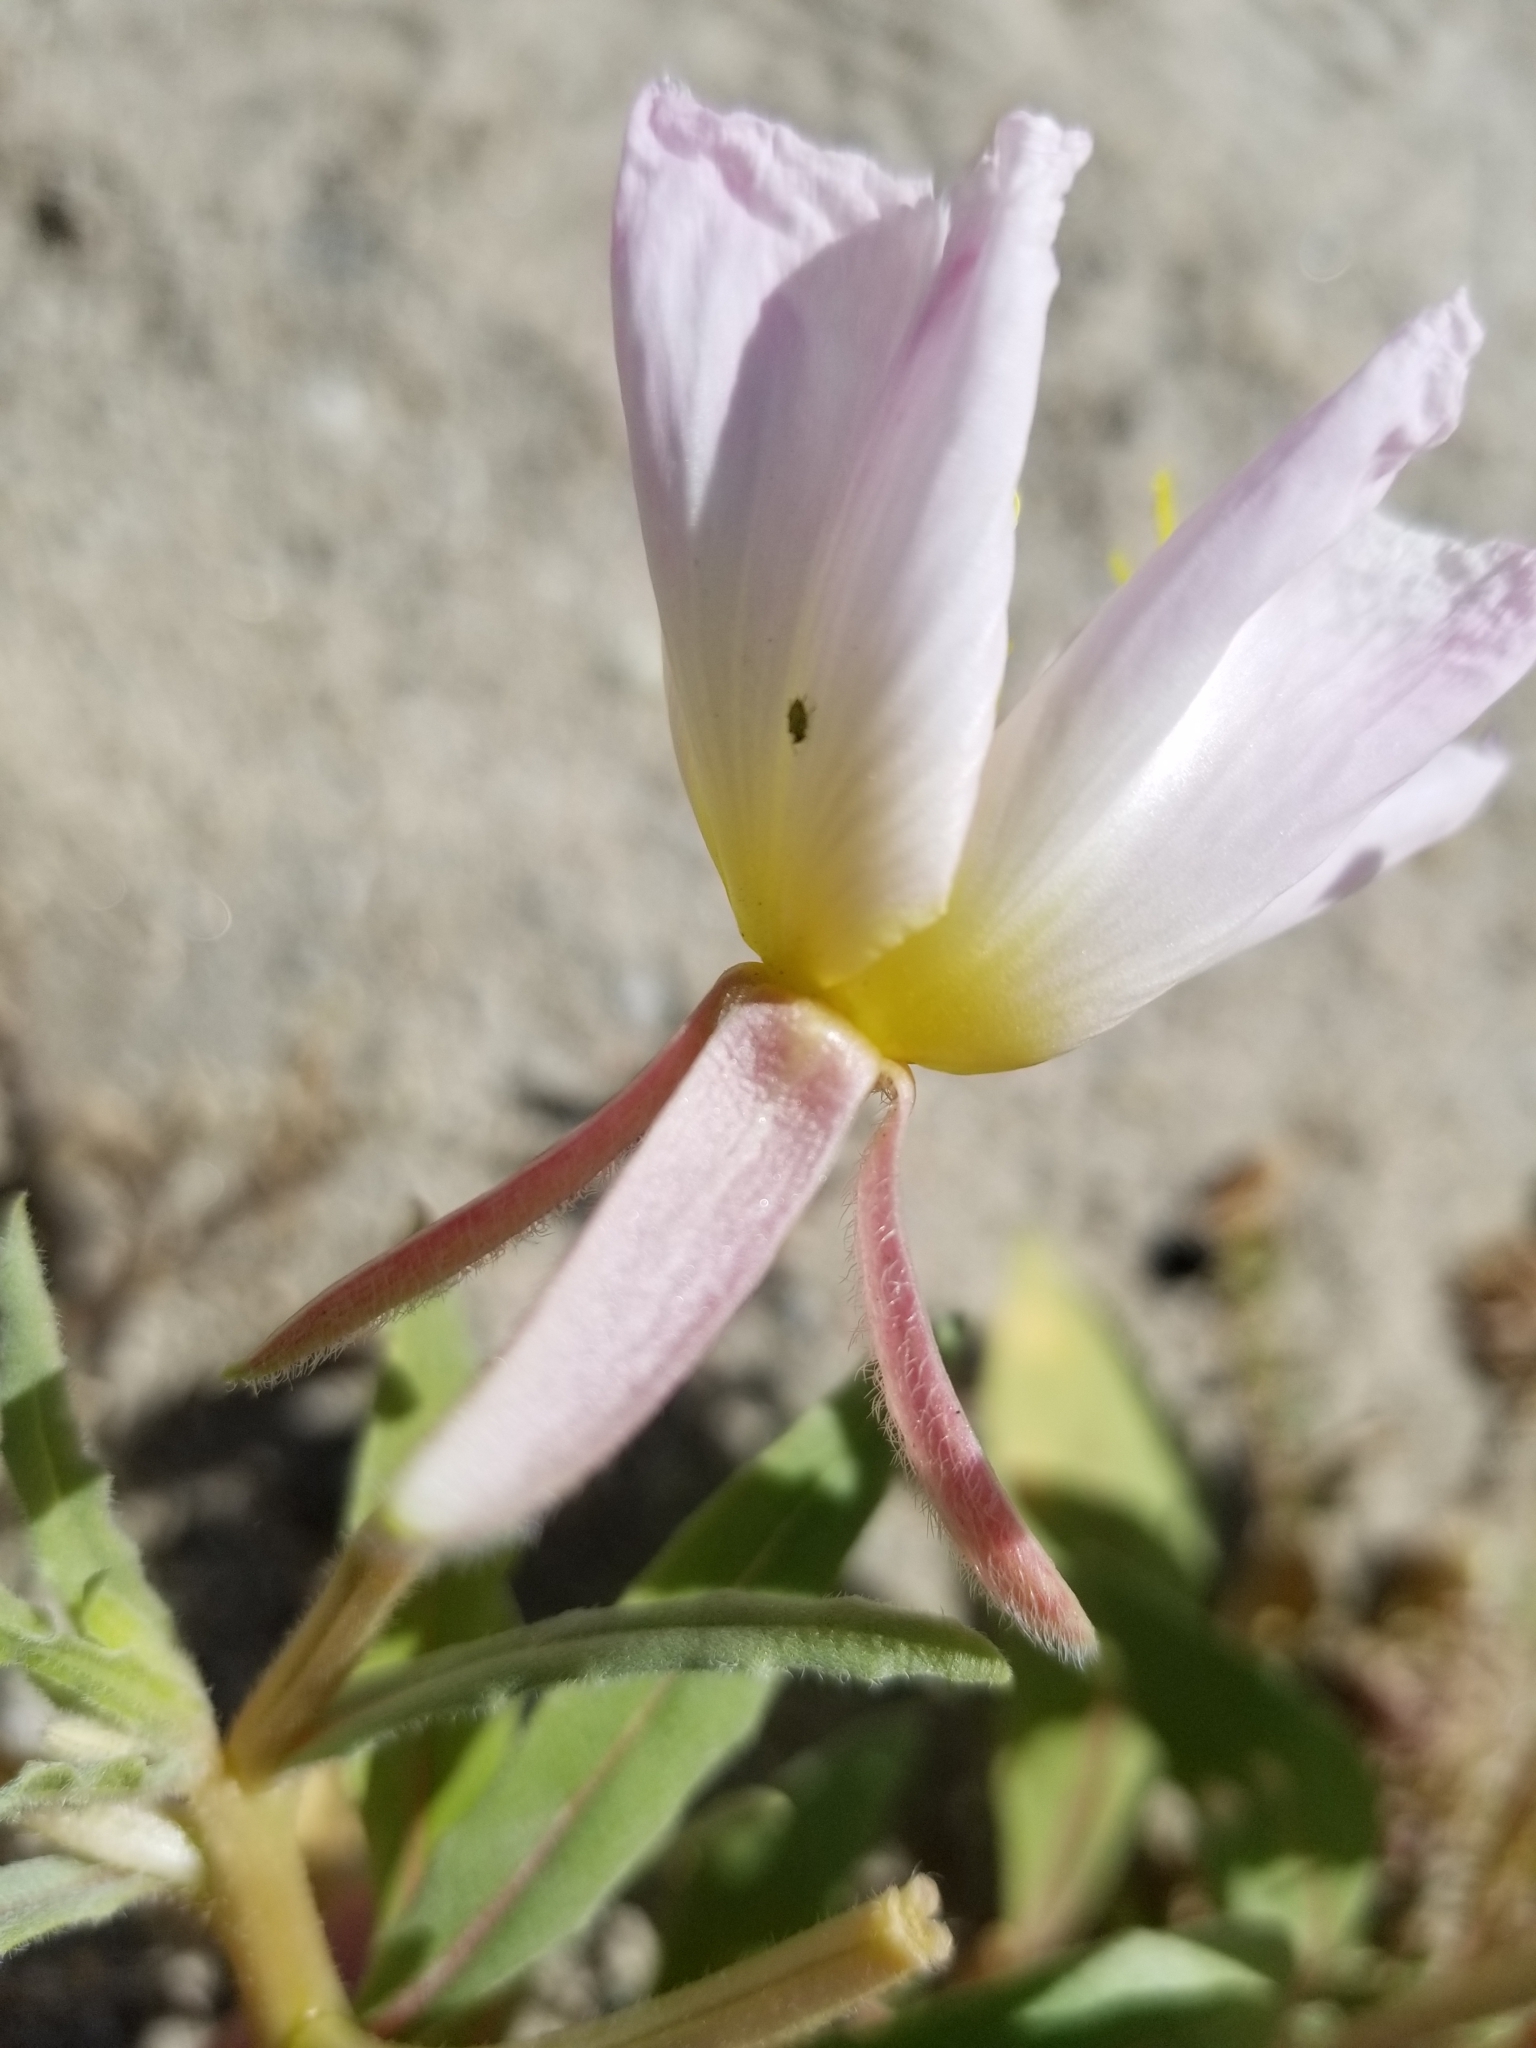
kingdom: Plantae
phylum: Tracheophyta
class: Magnoliopsida
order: Myrtales
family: Onagraceae
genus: Oenothera
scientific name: Oenothera deltoides
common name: Basket evening-primrose
